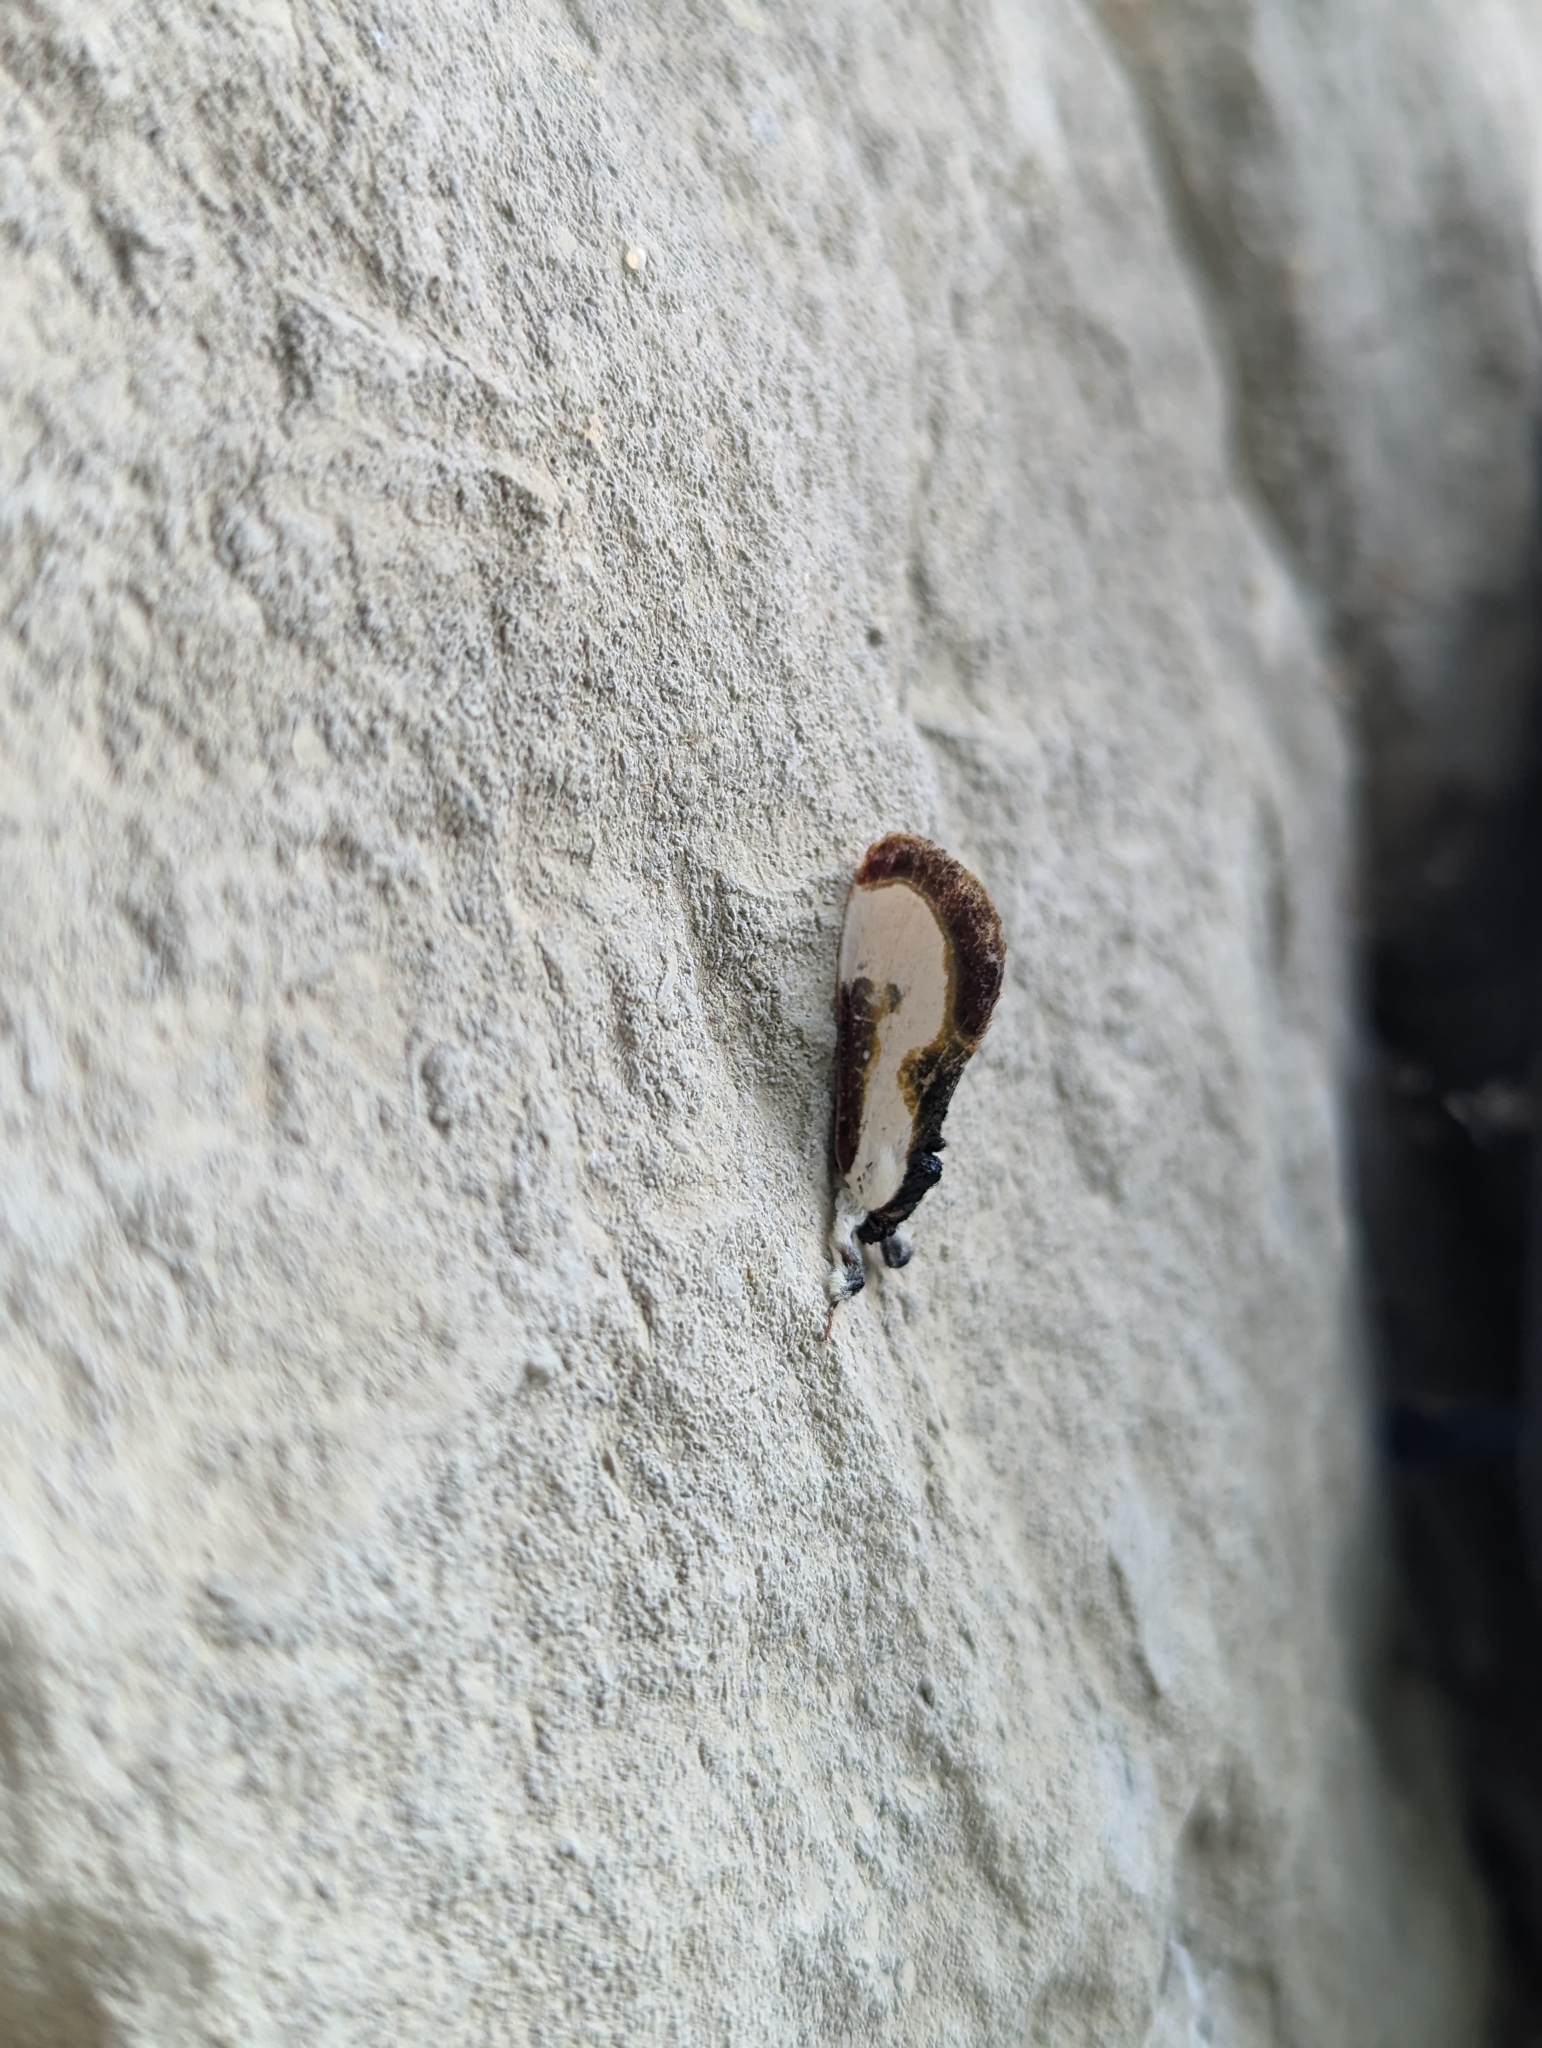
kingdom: Animalia
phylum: Arthropoda
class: Insecta
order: Lepidoptera
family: Noctuidae
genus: Eudryas
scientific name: Eudryas grata
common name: Beautiful wood-nymph
